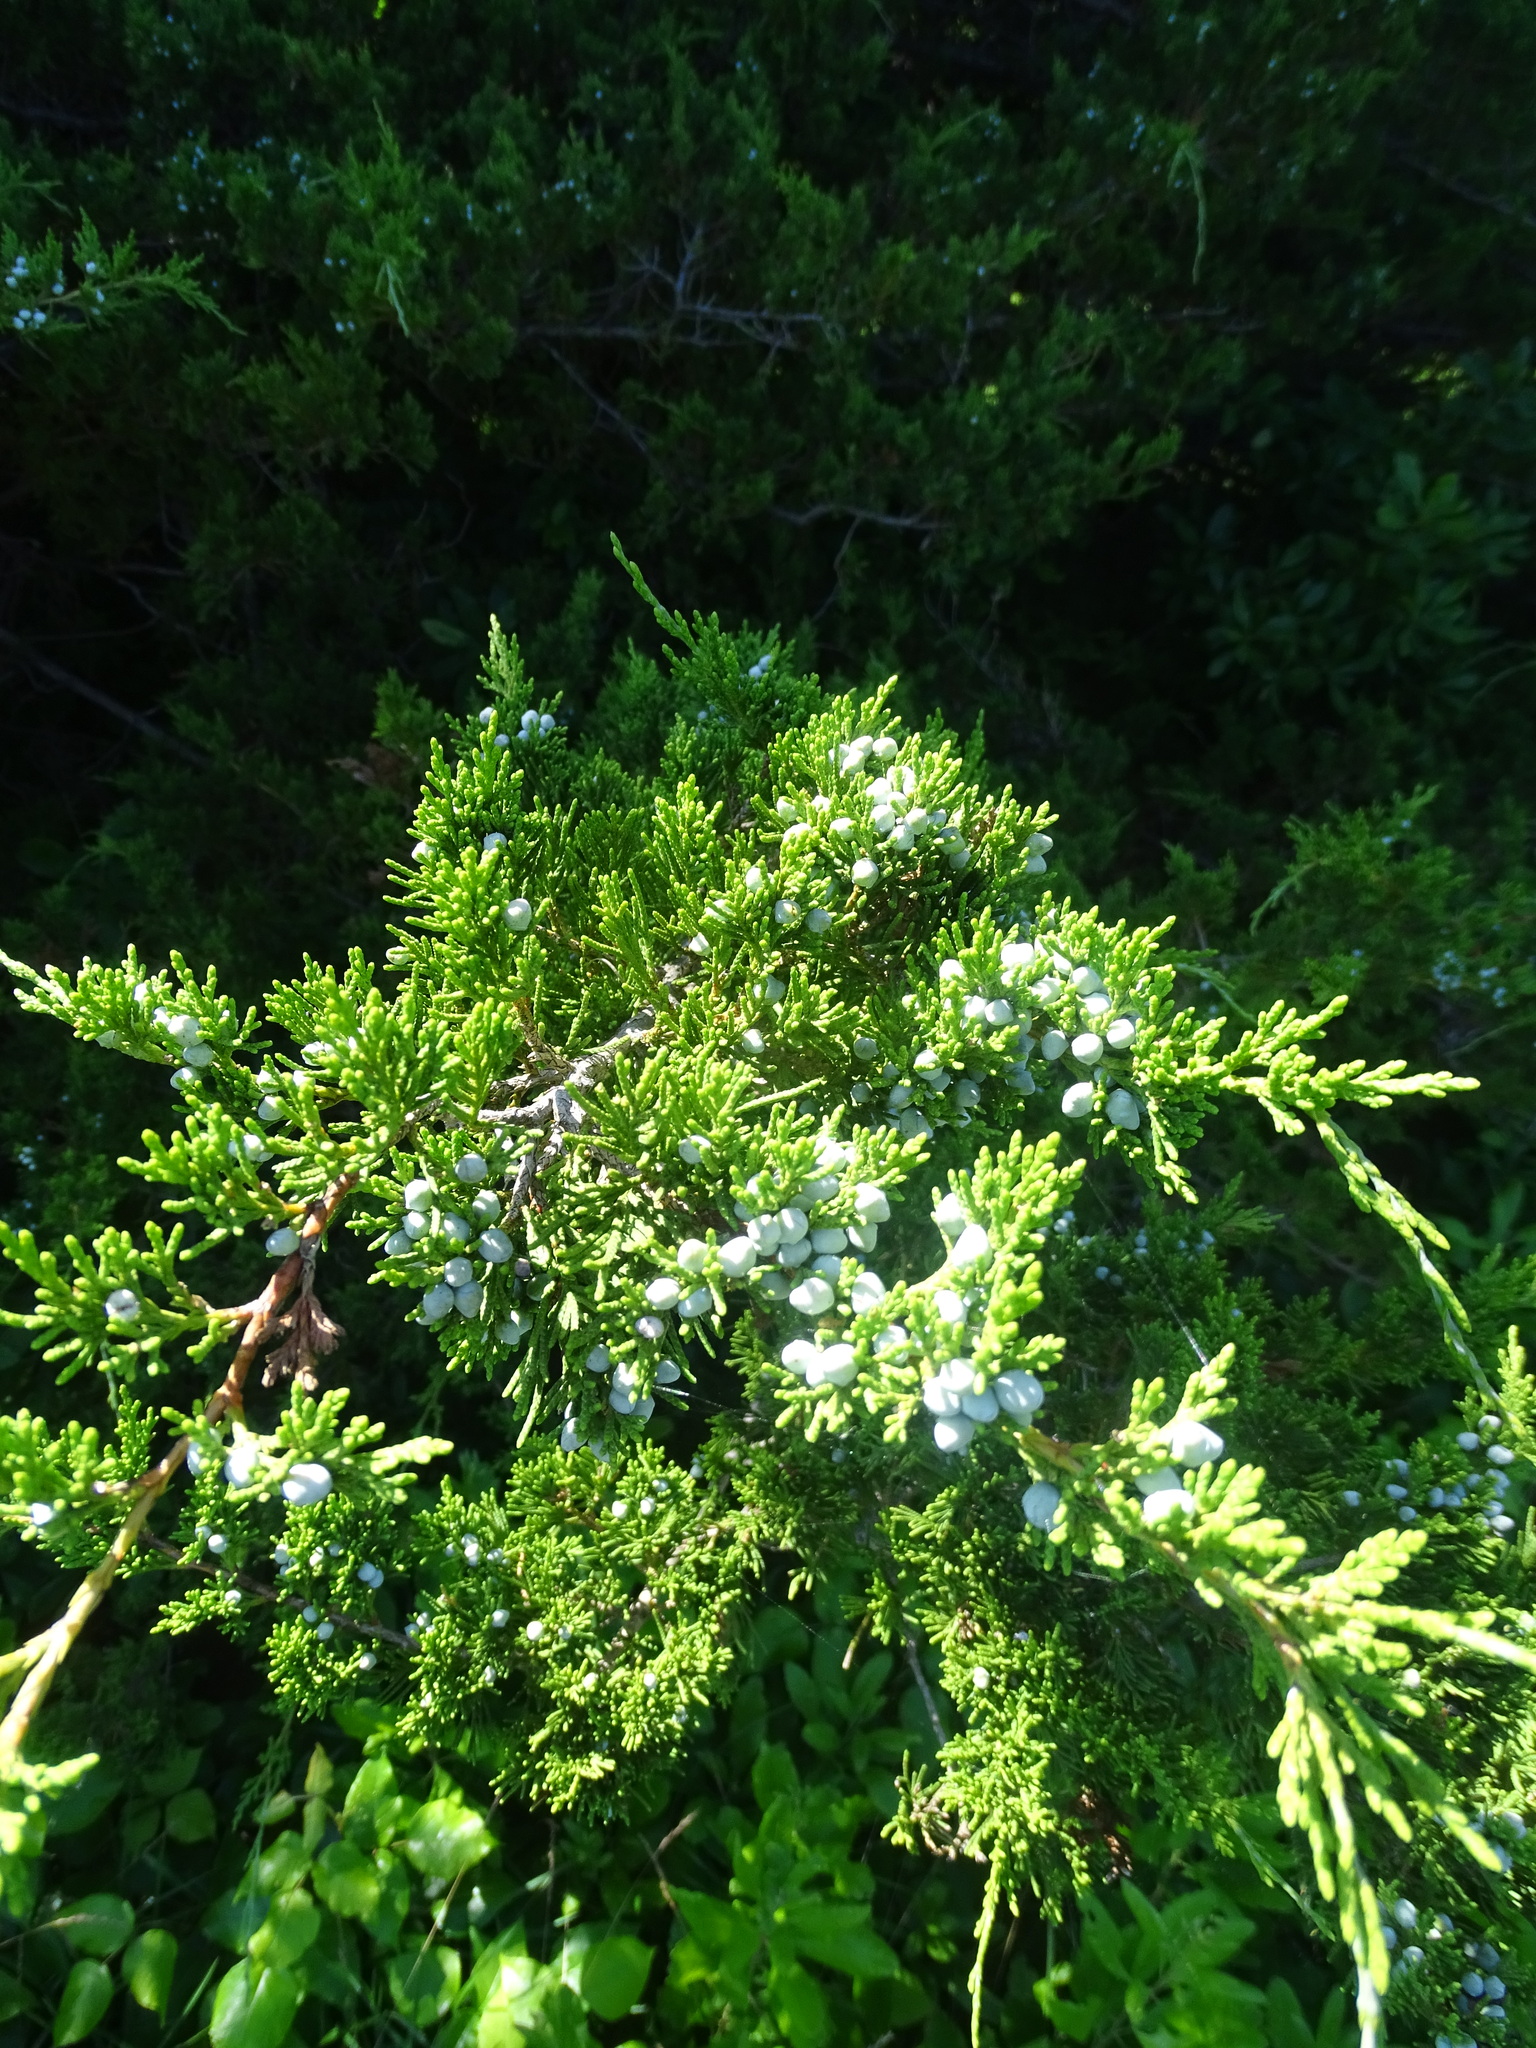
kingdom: Plantae
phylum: Tracheophyta
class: Pinopsida
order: Pinales
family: Cupressaceae
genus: Juniperus
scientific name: Juniperus virginiana
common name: Red juniper
